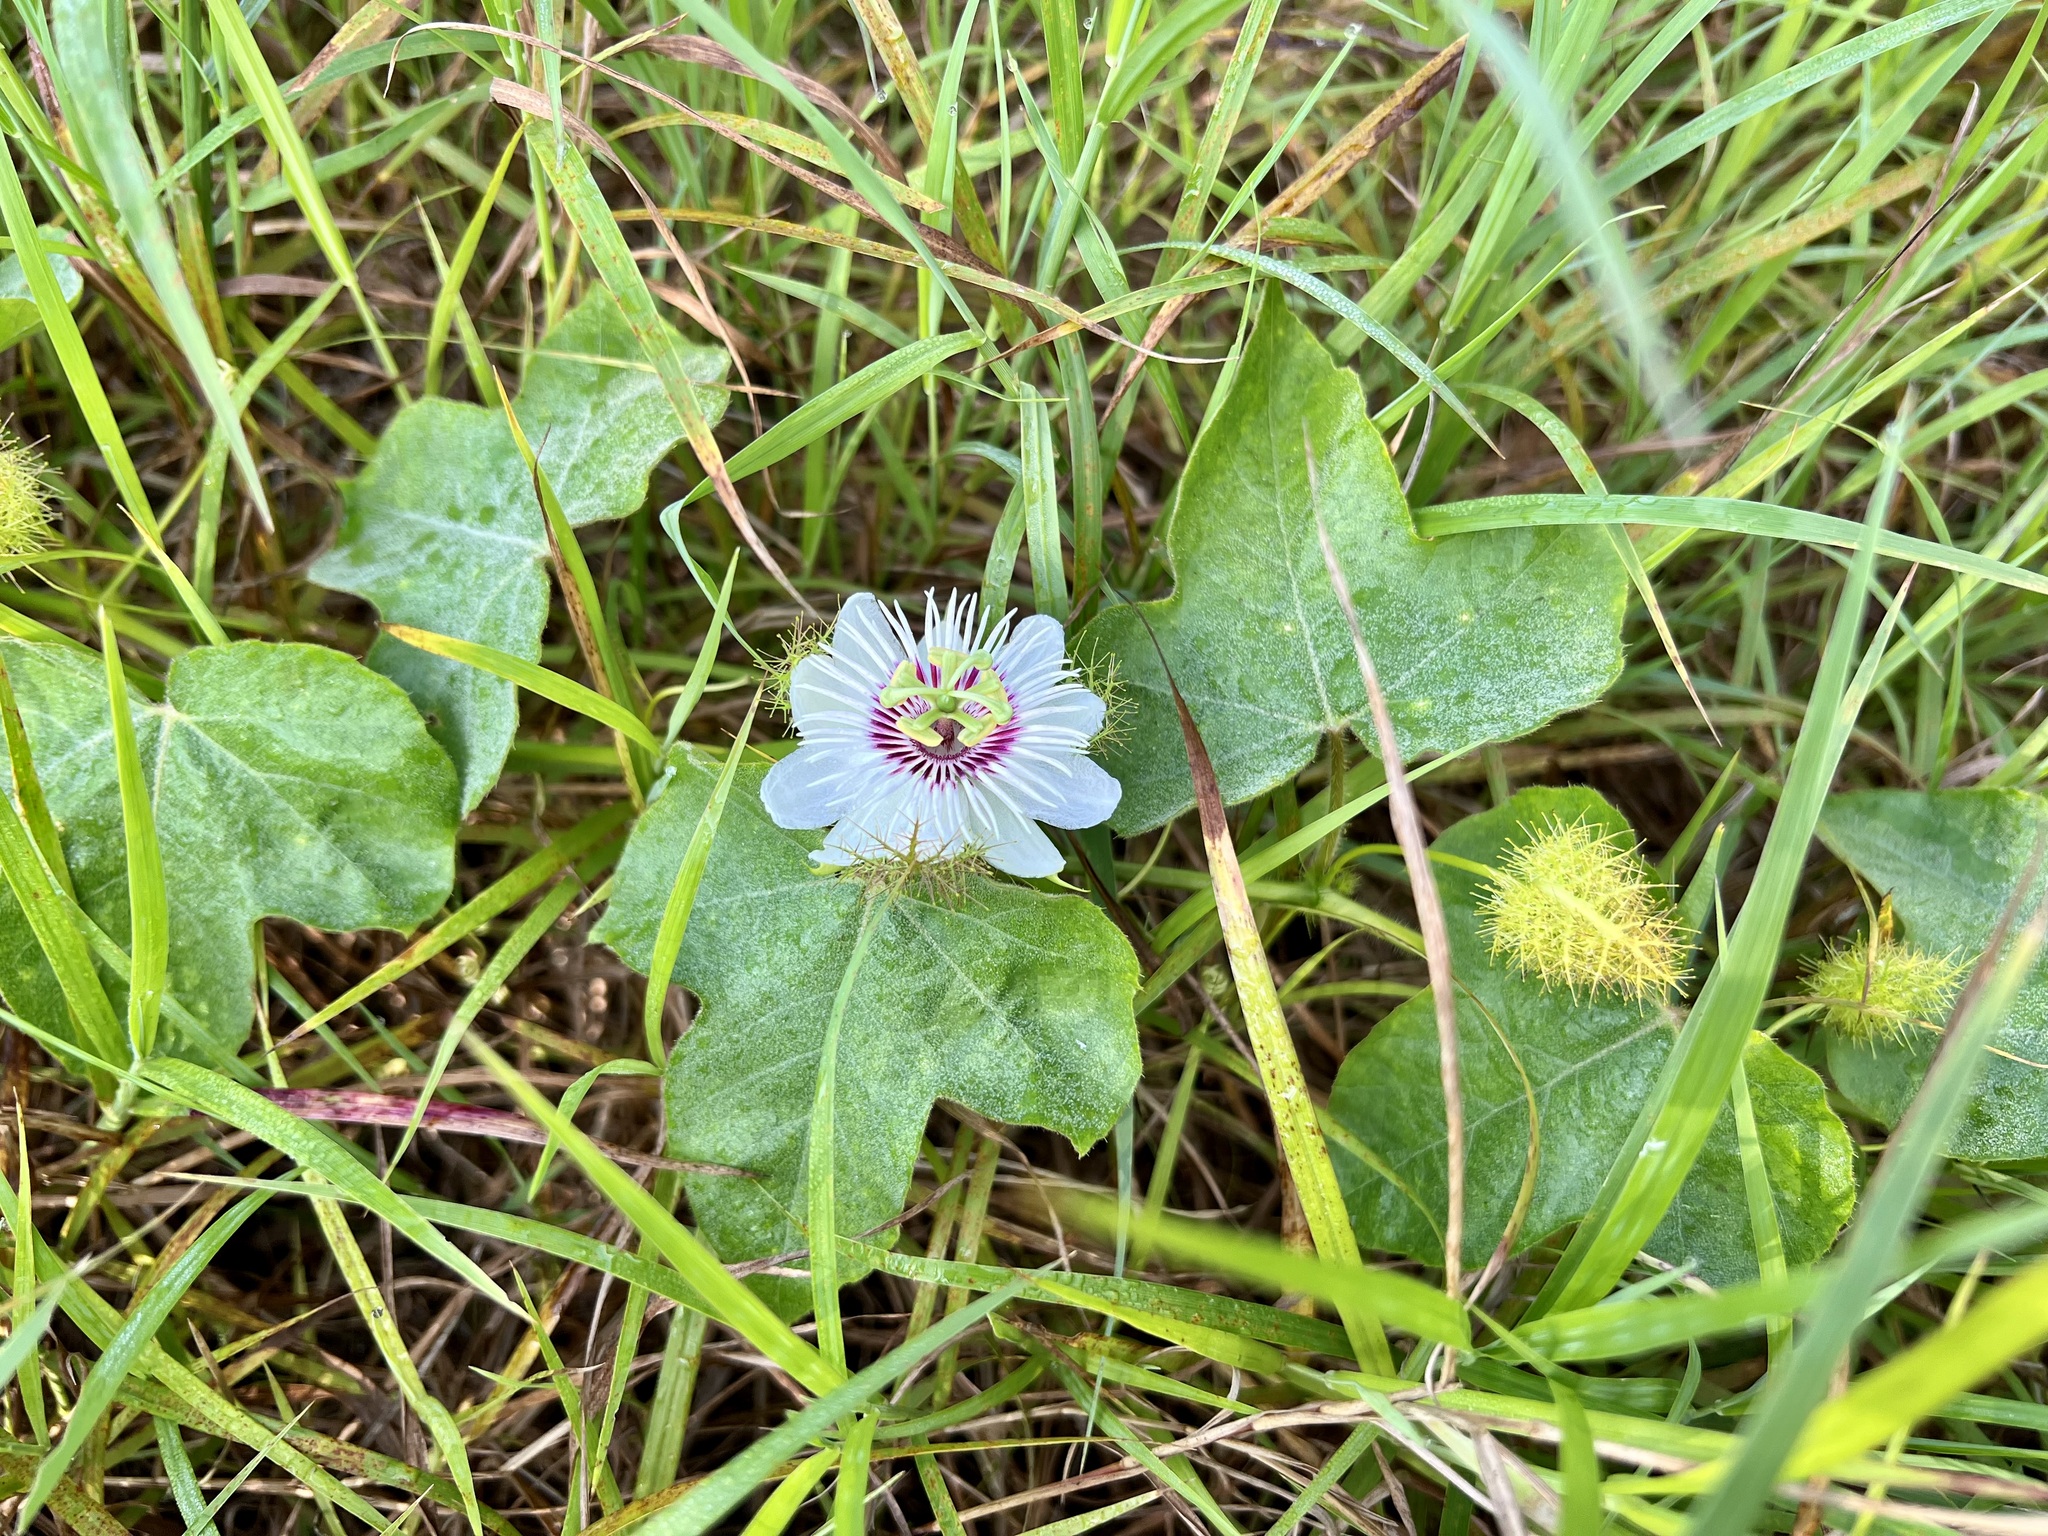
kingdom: Plantae
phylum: Tracheophyta
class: Magnoliopsida
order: Malpighiales
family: Passifloraceae
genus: Passiflora
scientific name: Passiflora vesicaria
